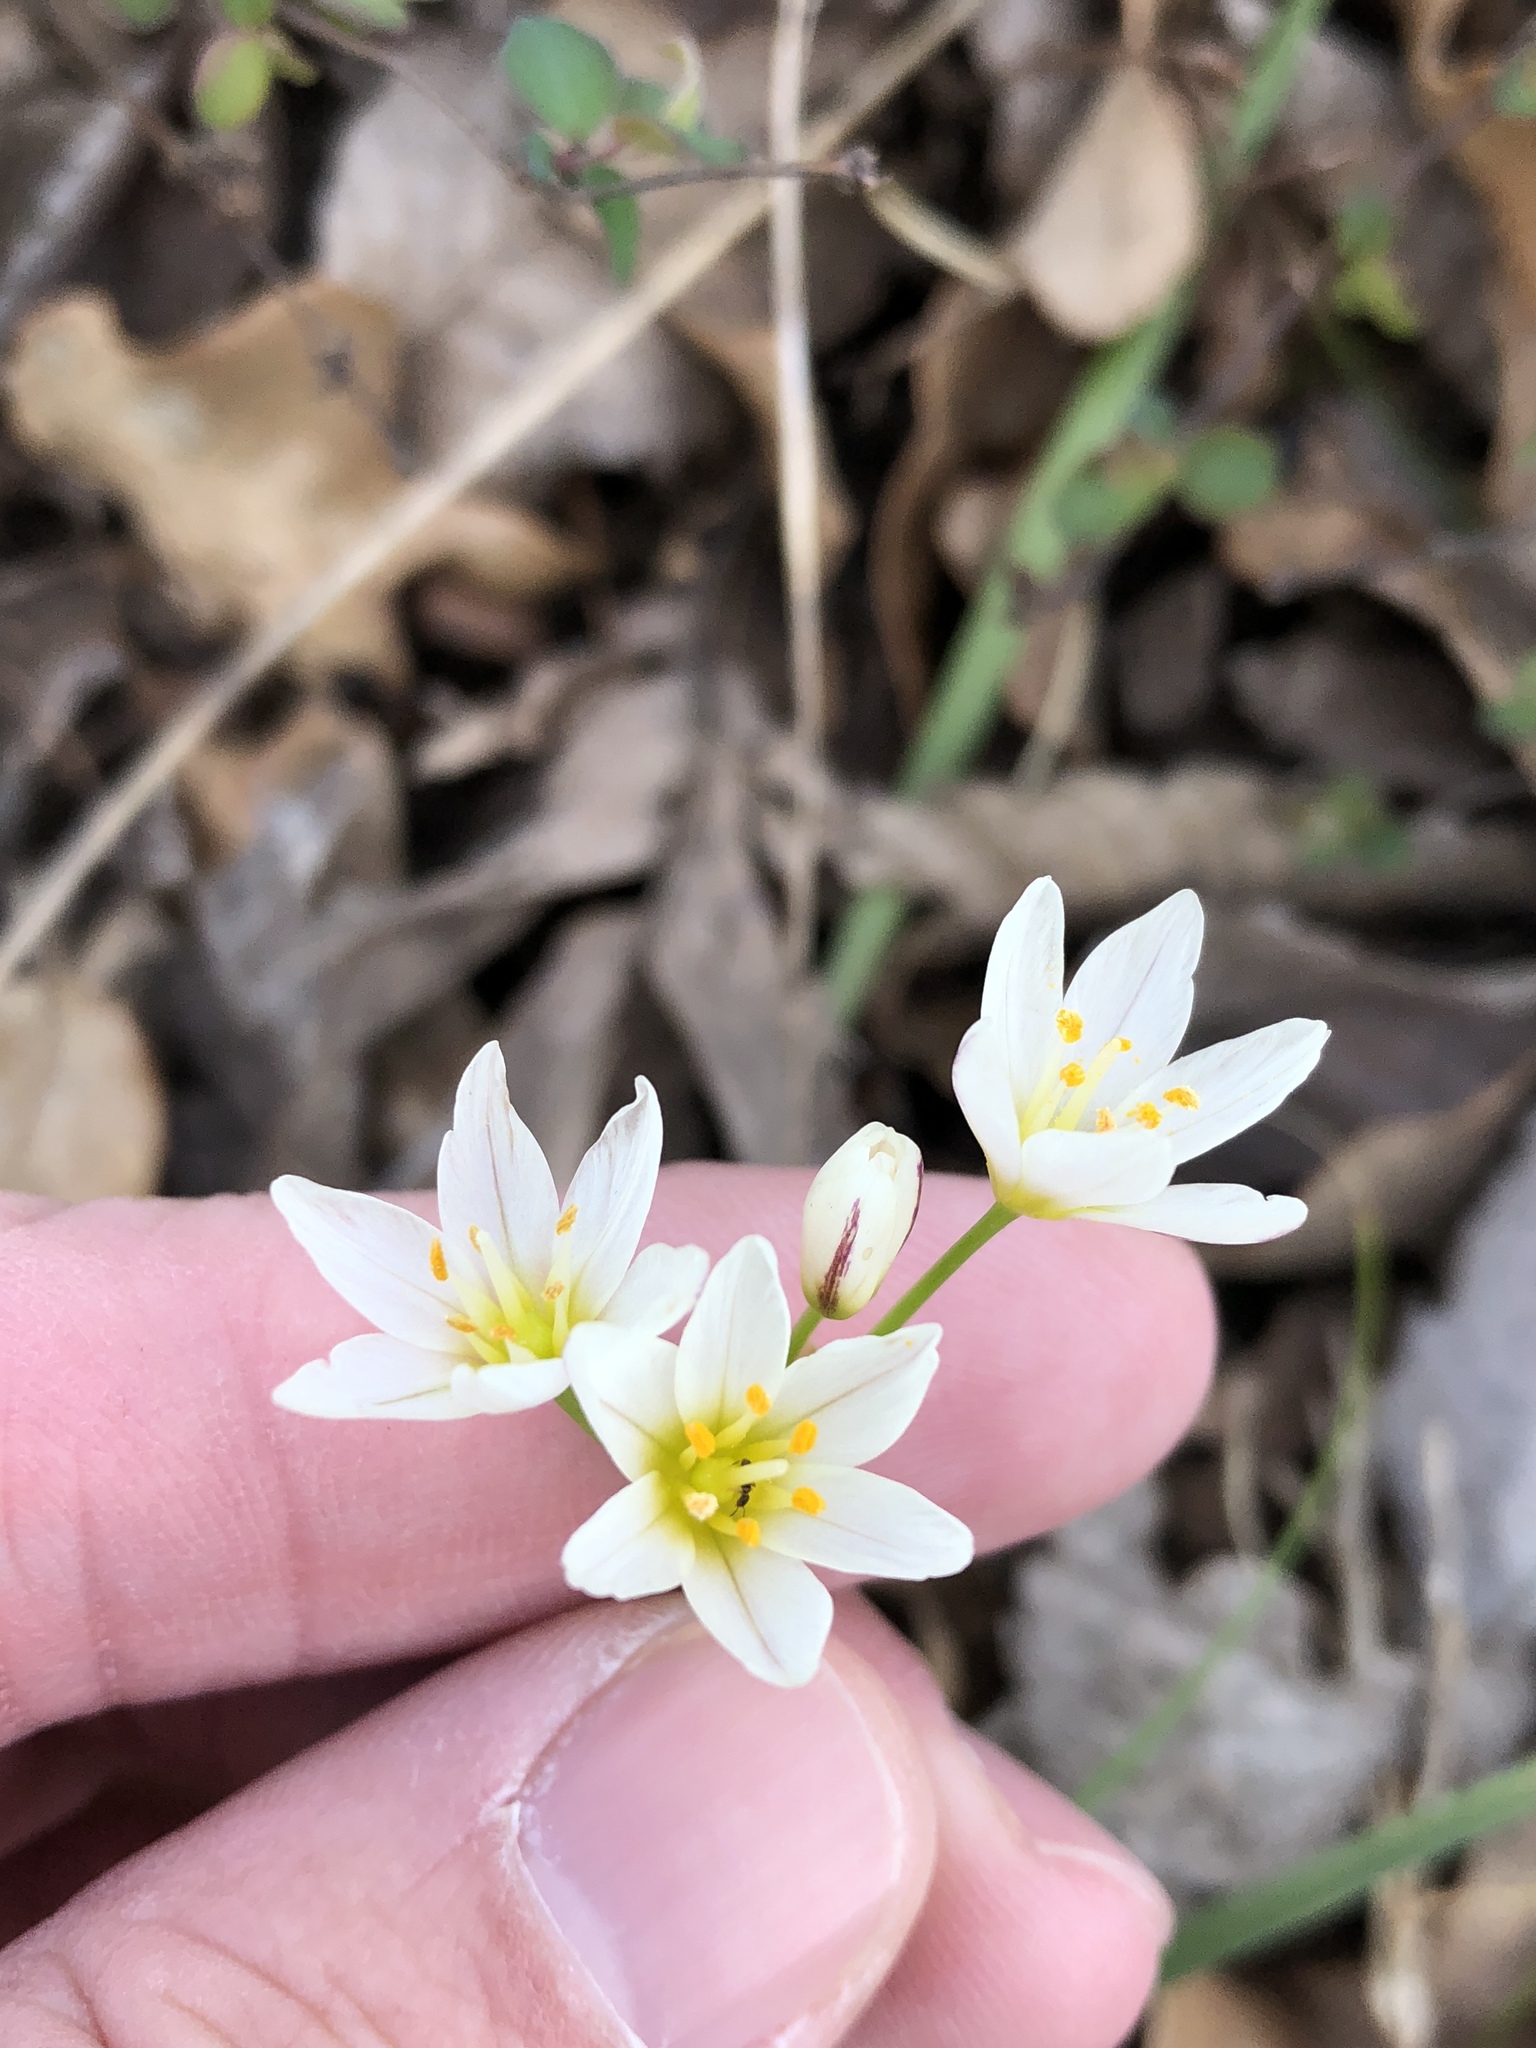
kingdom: Plantae
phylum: Tracheophyta
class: Liliopsida
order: Asparagales
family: Amaryllidaceae
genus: Nothoscordum
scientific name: Nothoscordum bivalve
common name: Crow-poison
